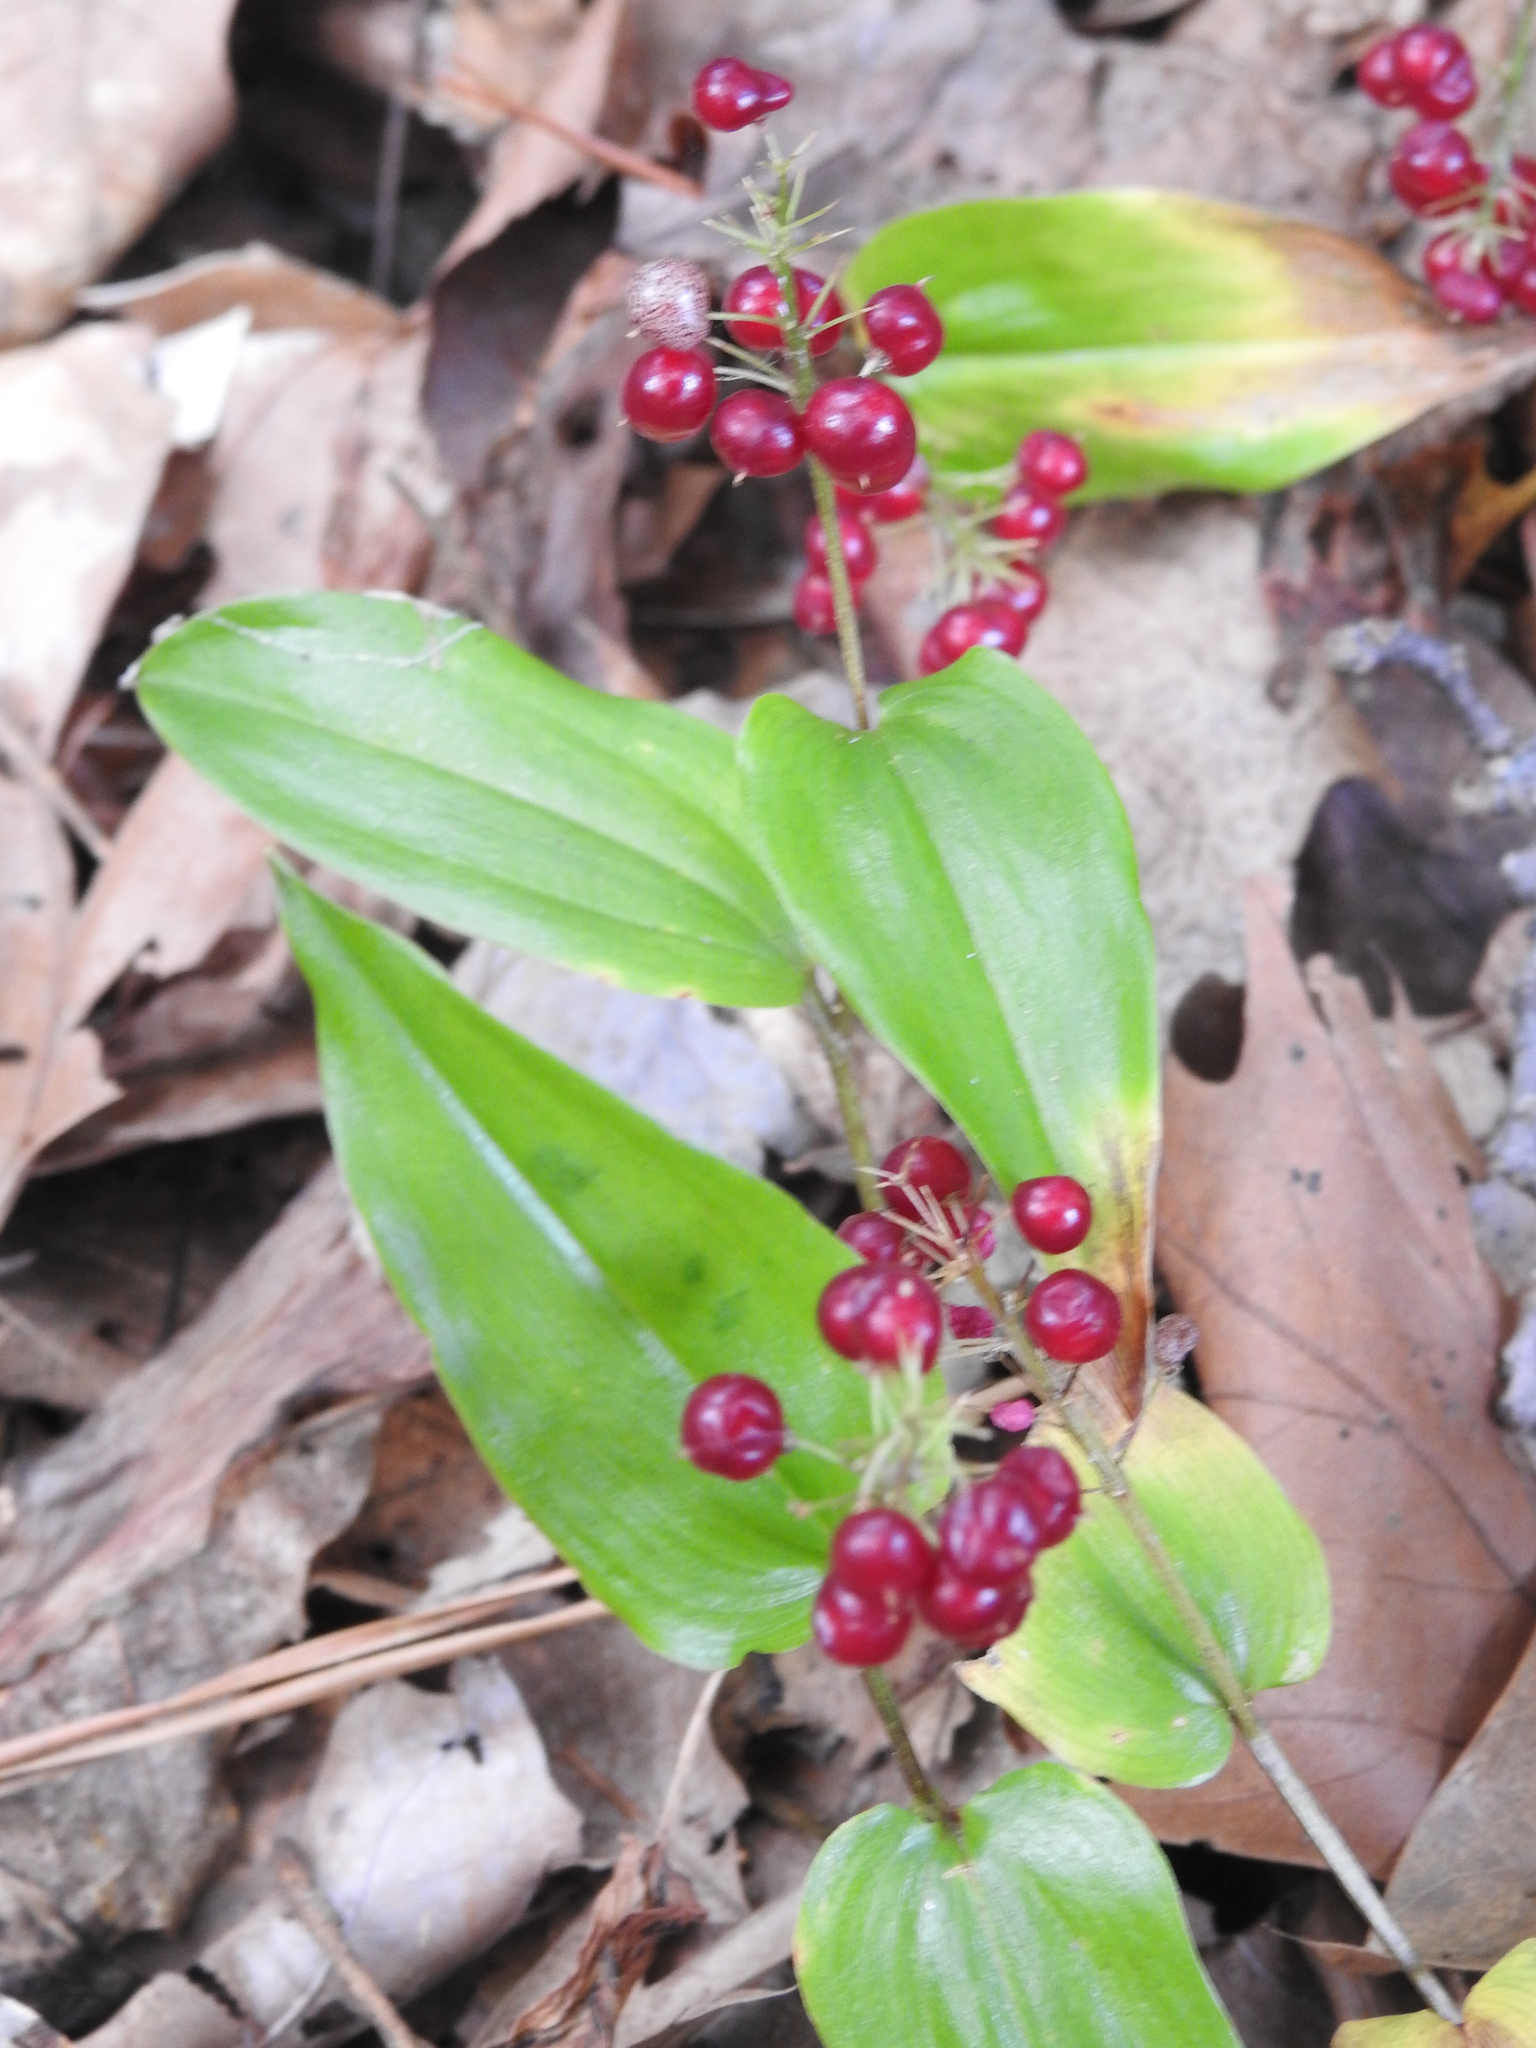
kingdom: Plantae
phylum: Tracheophyta
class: Liliopsida
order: Asparagales
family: Asparagaceae
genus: Maianthemum
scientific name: Maianthemum canadense
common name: False lily-of-the-valley
